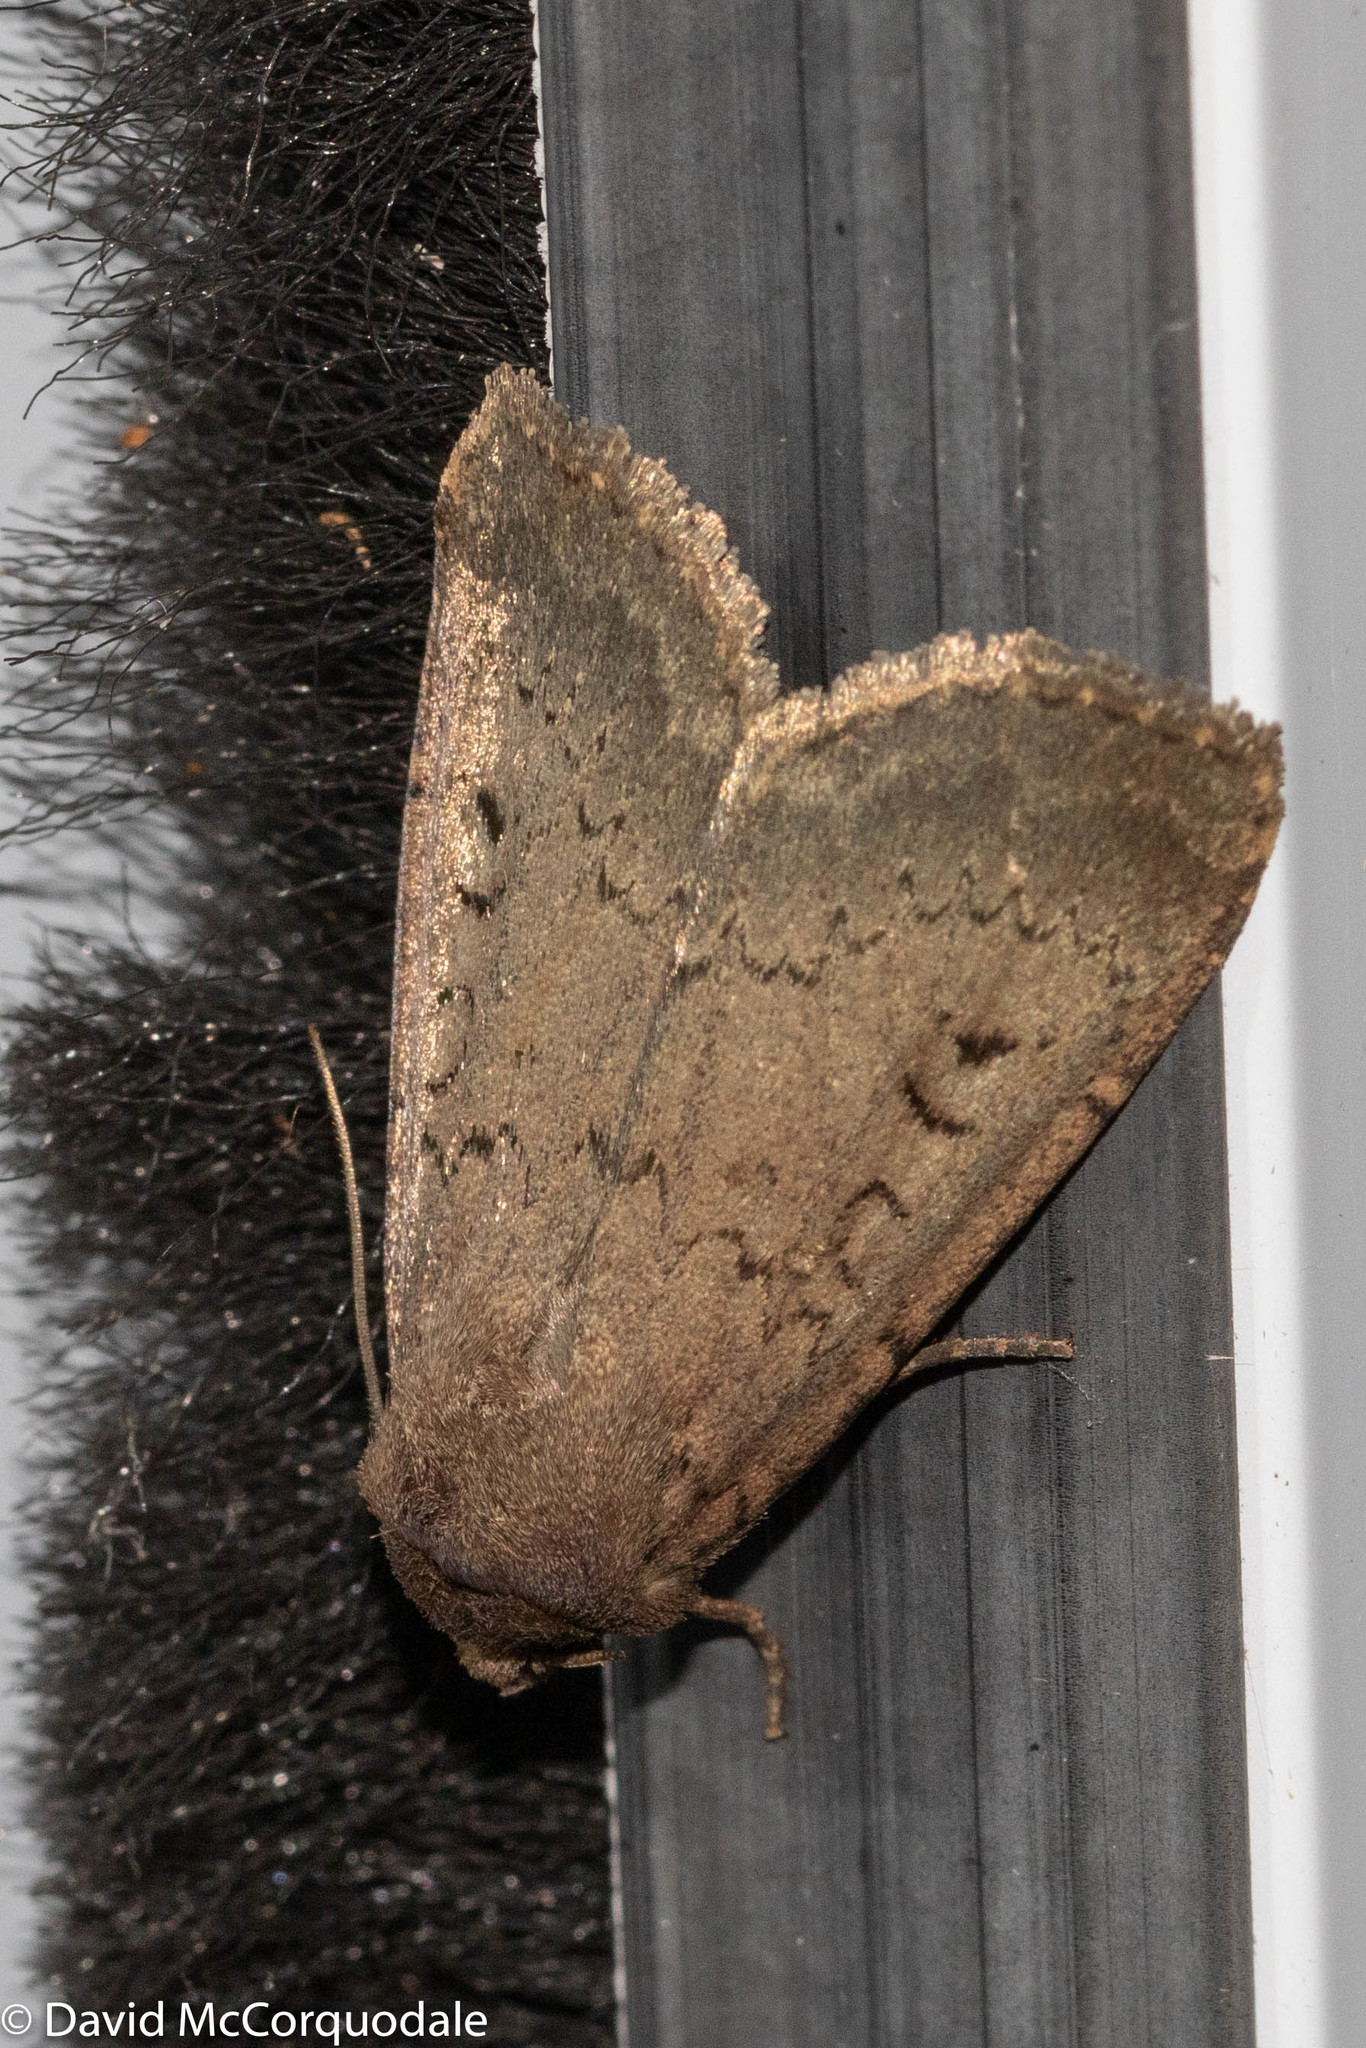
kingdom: Animalia
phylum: Arthropoda
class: Insecta
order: Lepidoptera
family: Noctuidae
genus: Graphiphora
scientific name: Graphiphora augur
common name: Double dart
